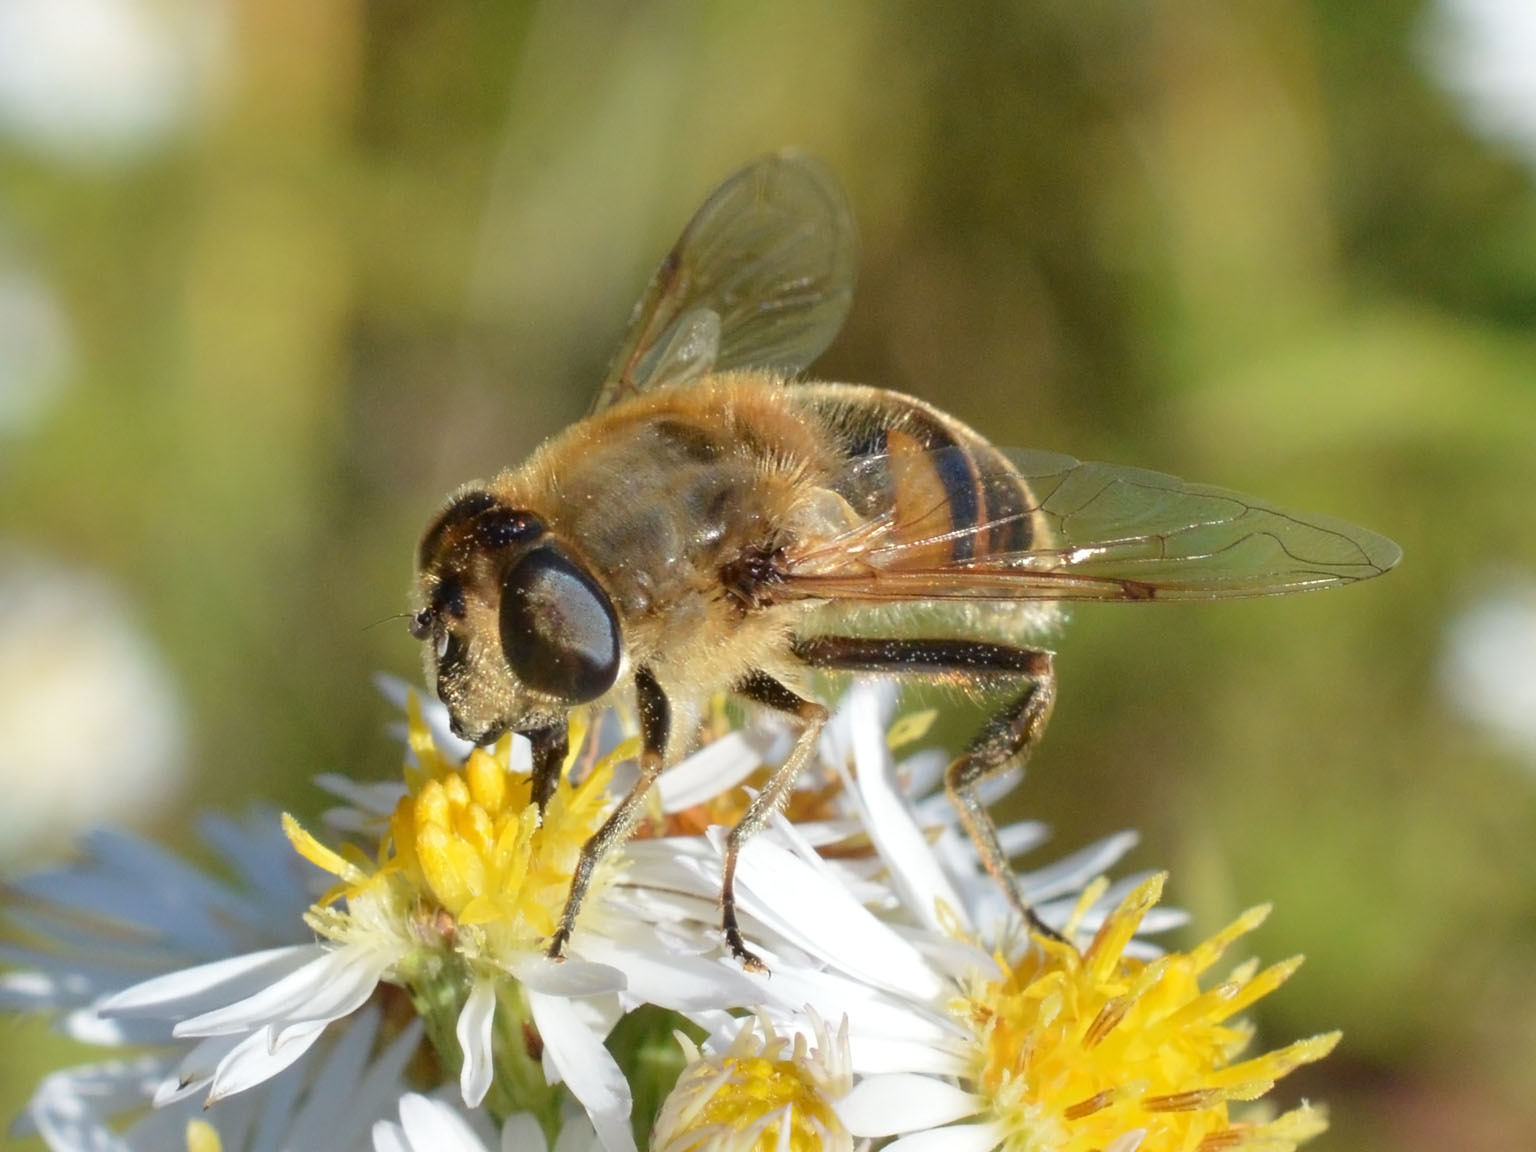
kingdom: Animalia
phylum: Arthropoda
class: Insecta
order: Diptera
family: Syrphidae
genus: Eristalis
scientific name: Eristalis tenax
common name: Drone fly
